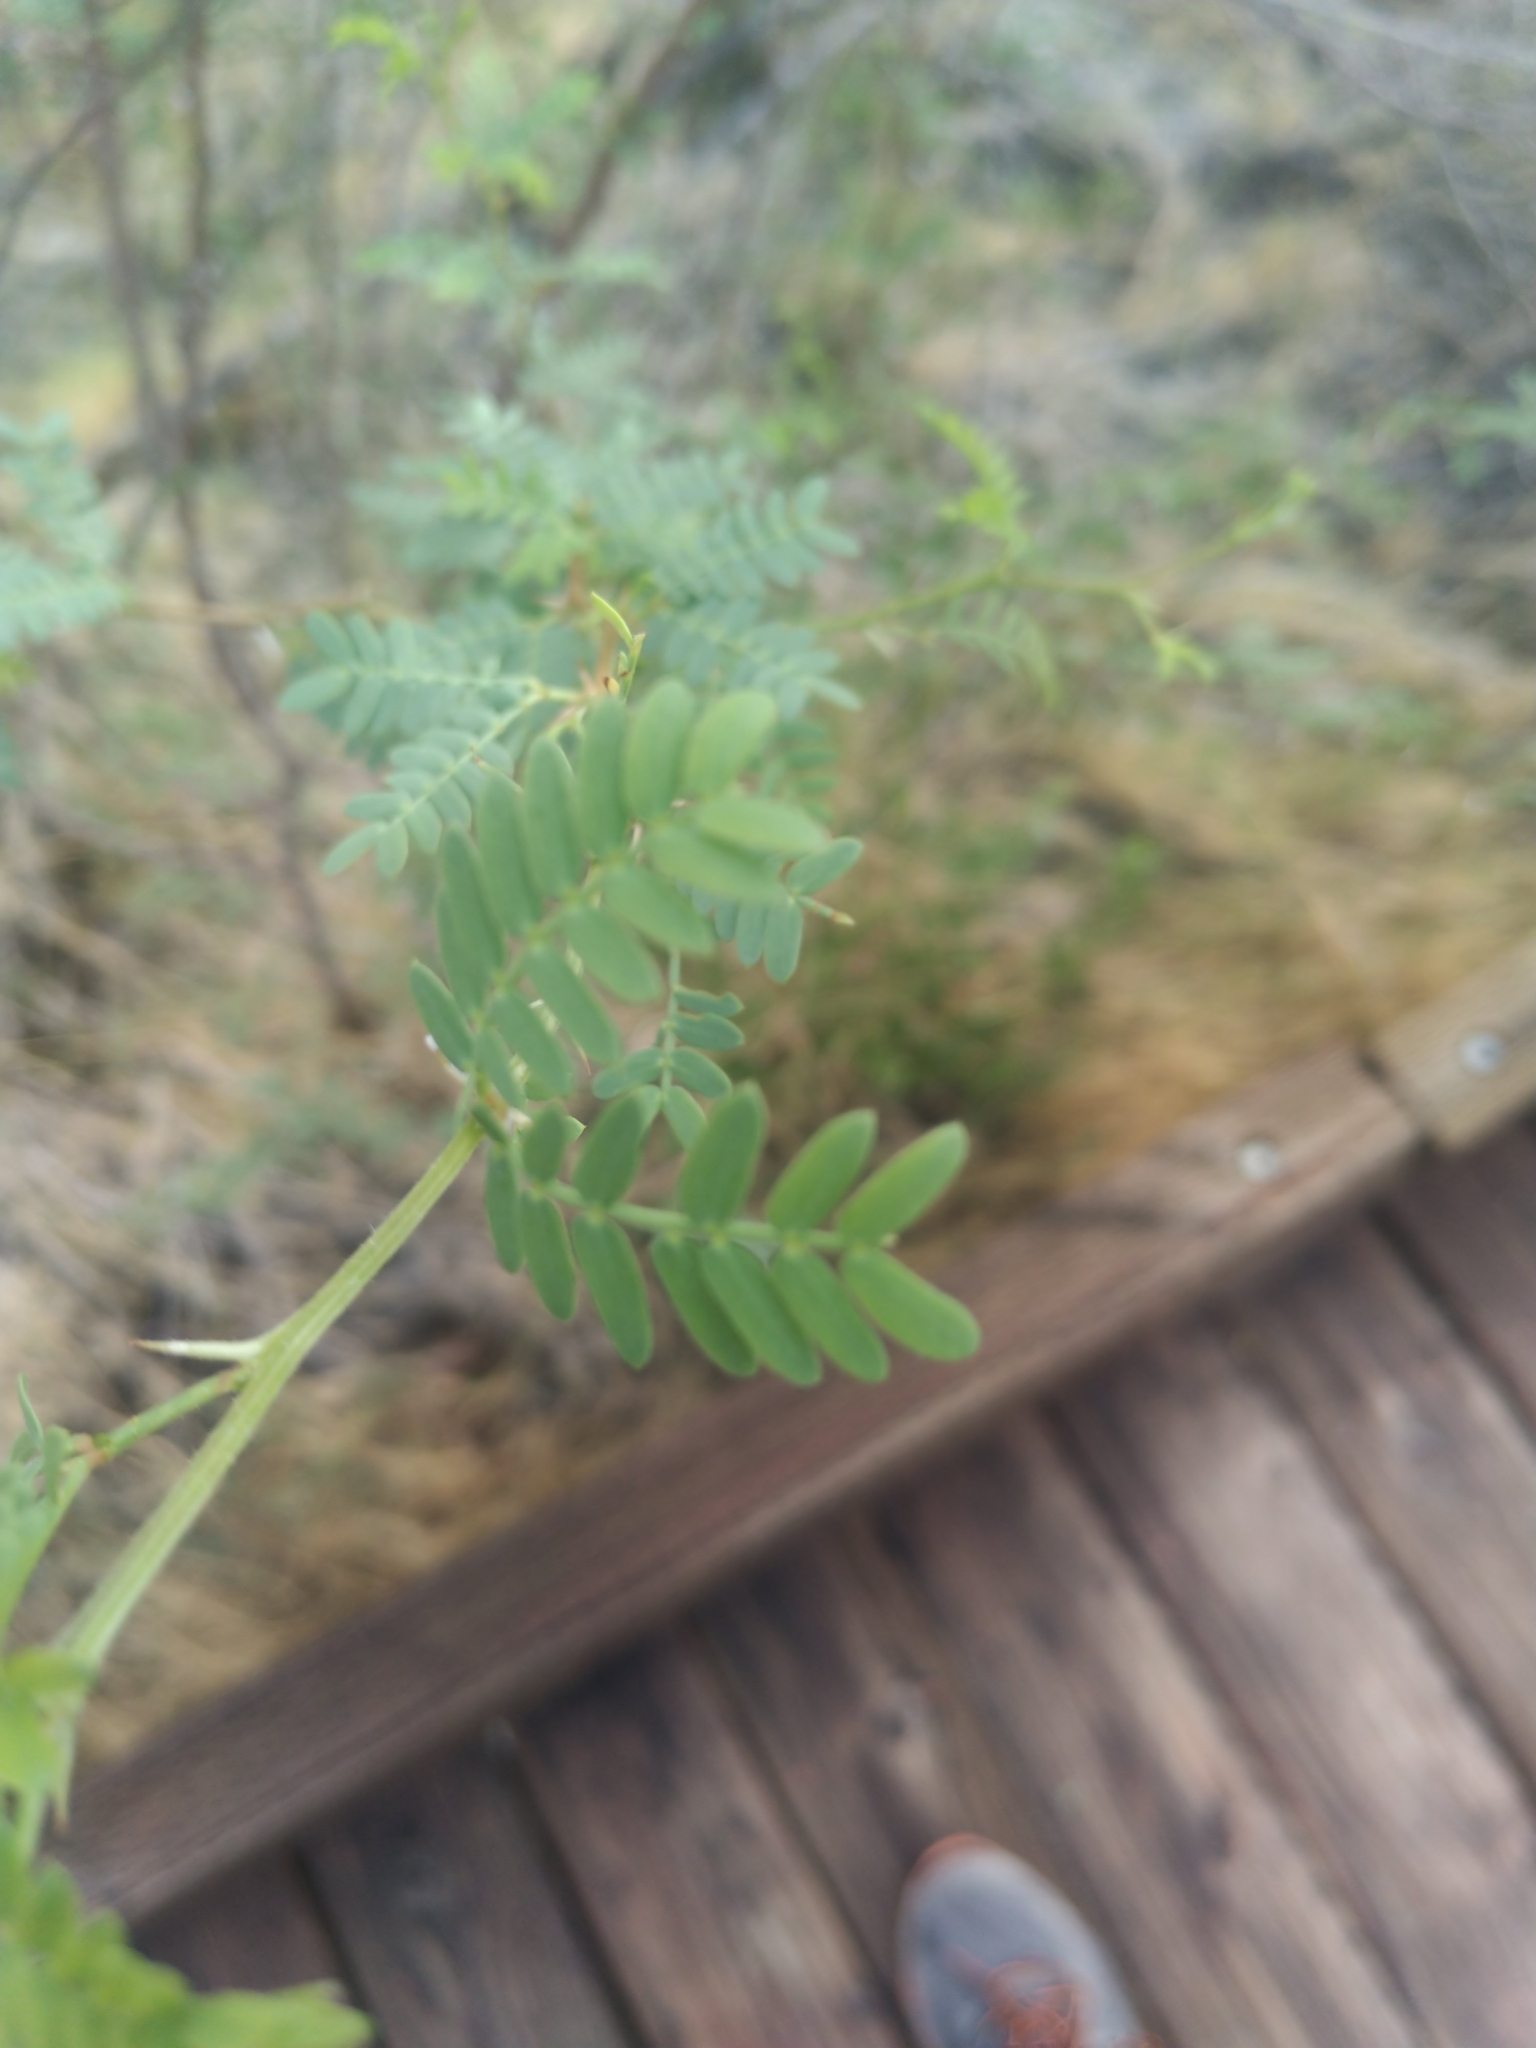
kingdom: Plantae
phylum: Tracheophyta
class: Magnoliopsida
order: Fabales
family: Fabaceae
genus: Prosopis
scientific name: Prosopis pubescens
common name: Screw-bean
